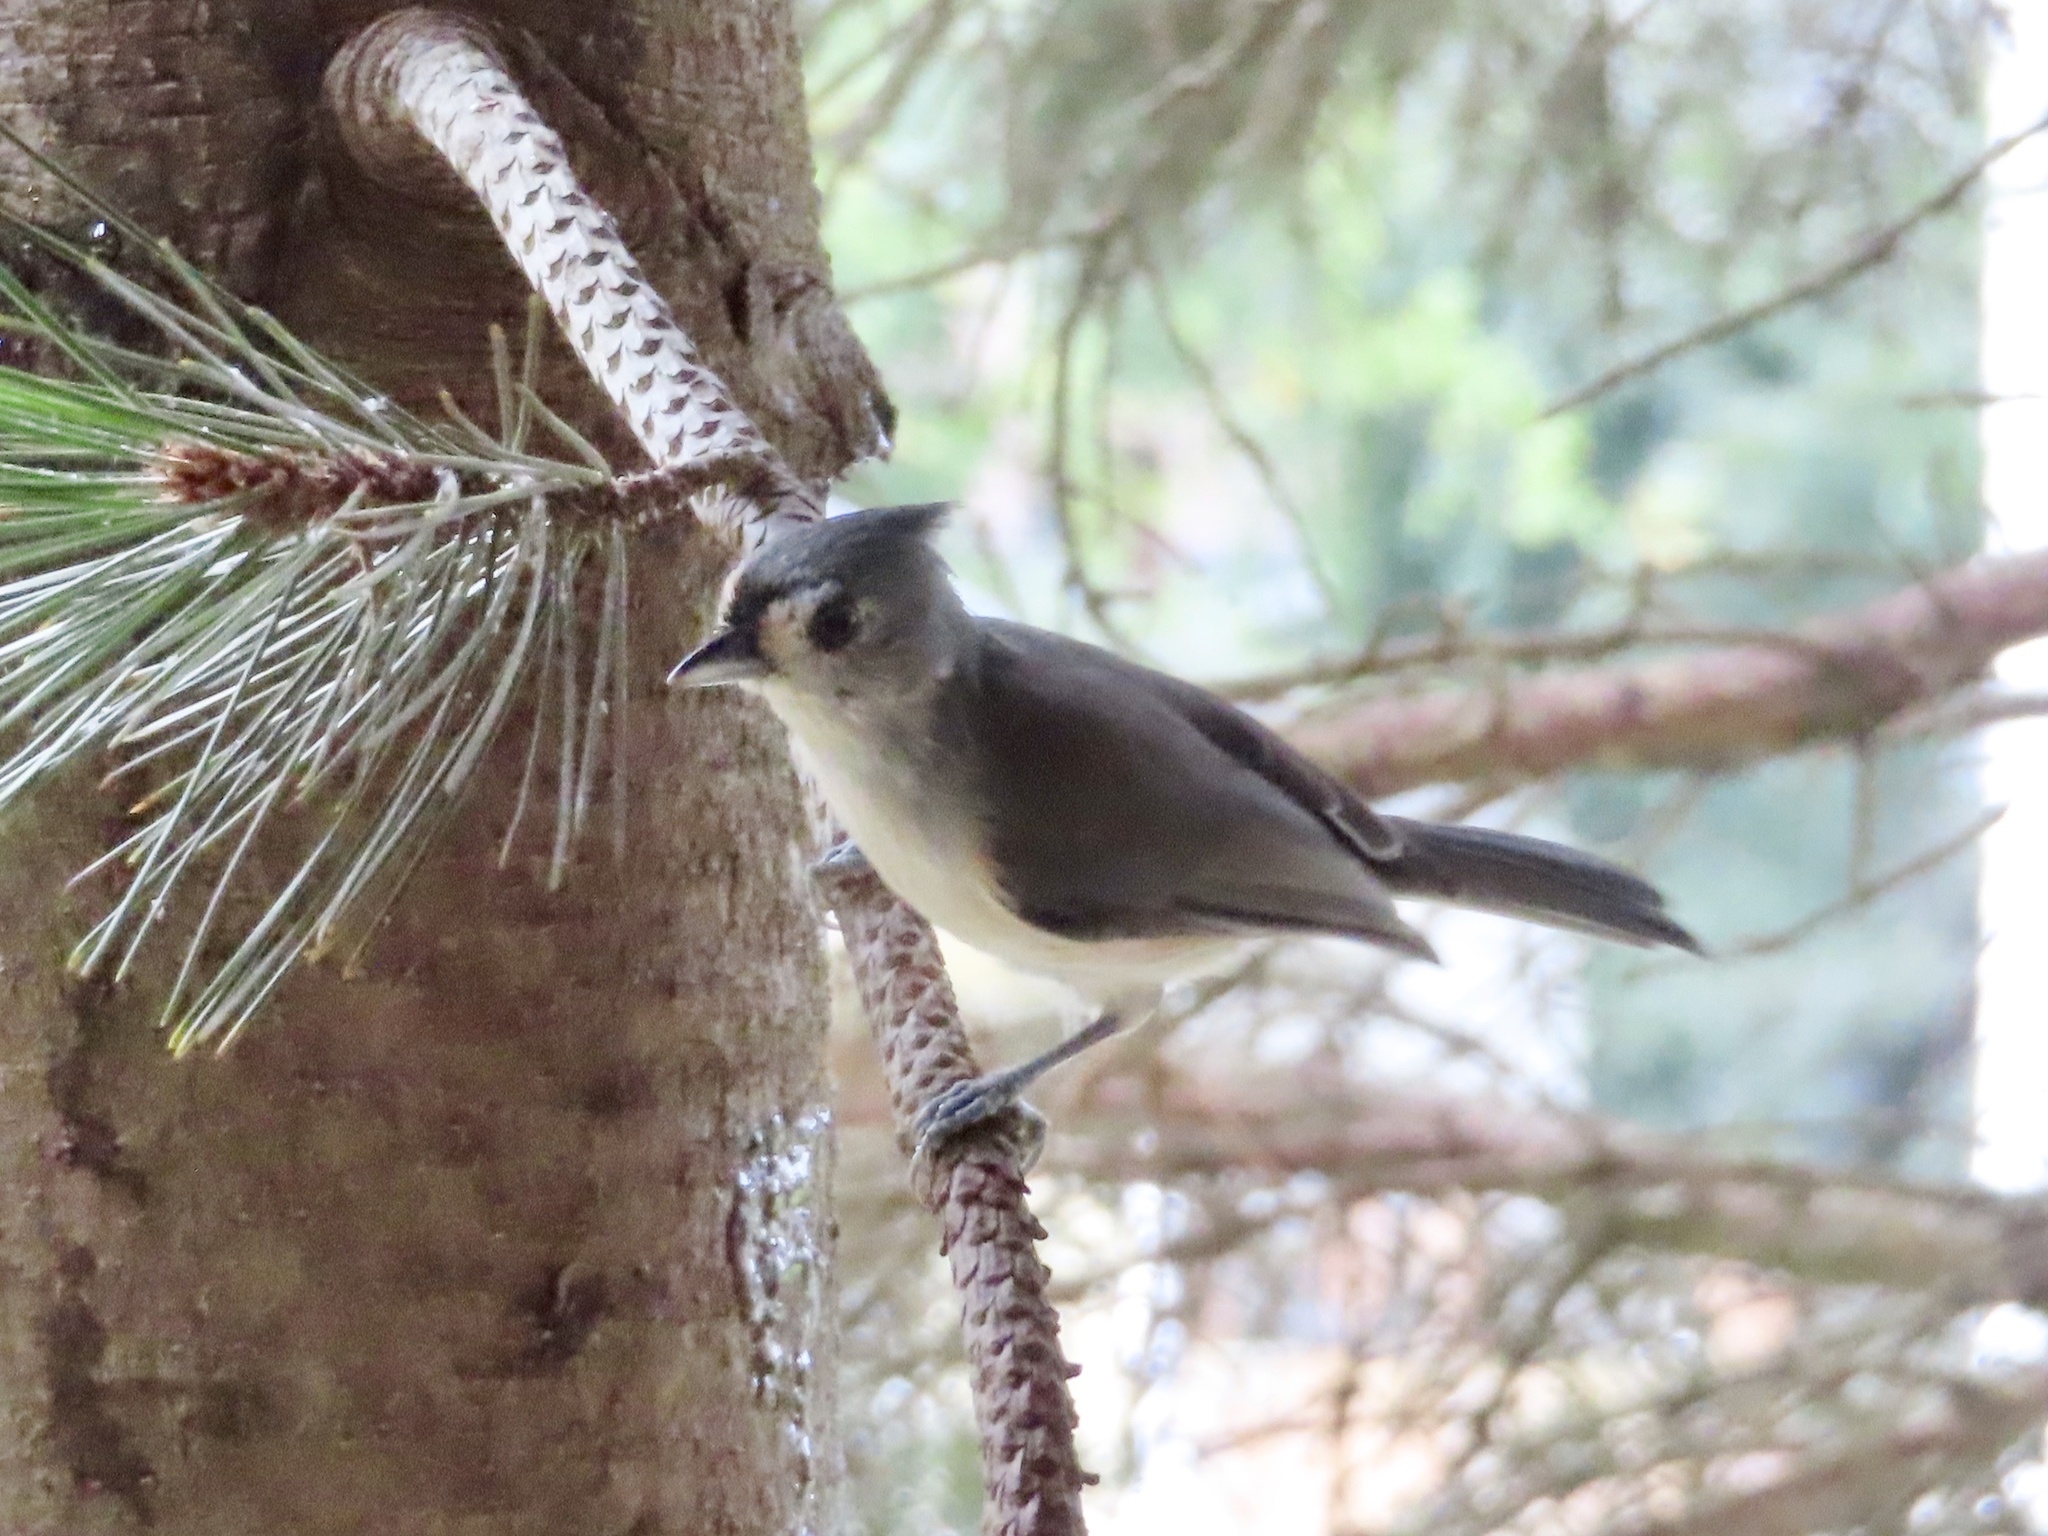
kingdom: Animalia
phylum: Chordata
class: Aves
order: Passeriformes
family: Paridae
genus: Baeolophus
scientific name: Baeolophus bicolor
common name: Tufted titmouse
